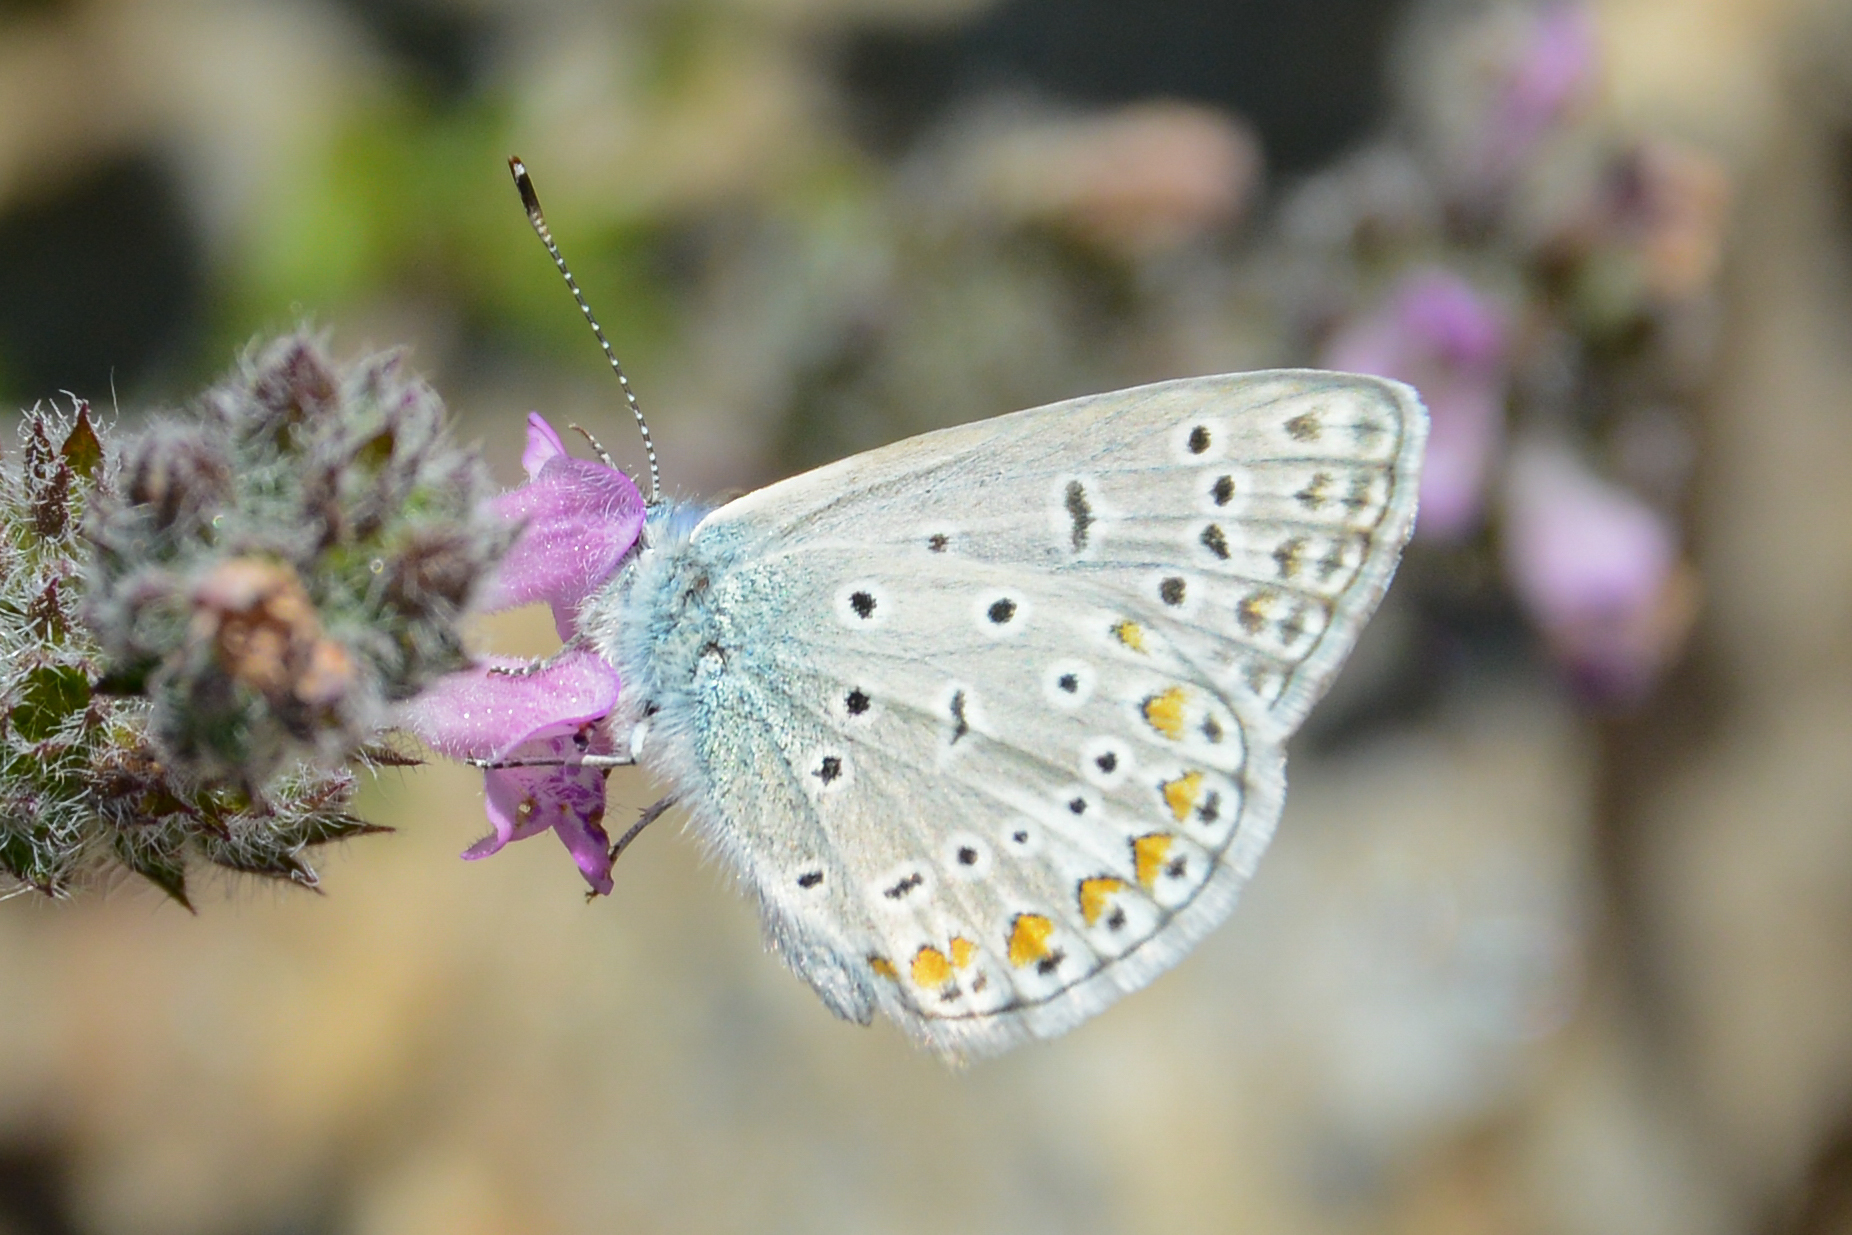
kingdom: Animalia
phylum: Arthropoda
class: Insecta
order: Lepidoptera
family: Lycaenidae
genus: Polyommatus
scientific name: Polyommatus icarus
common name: Common blue
